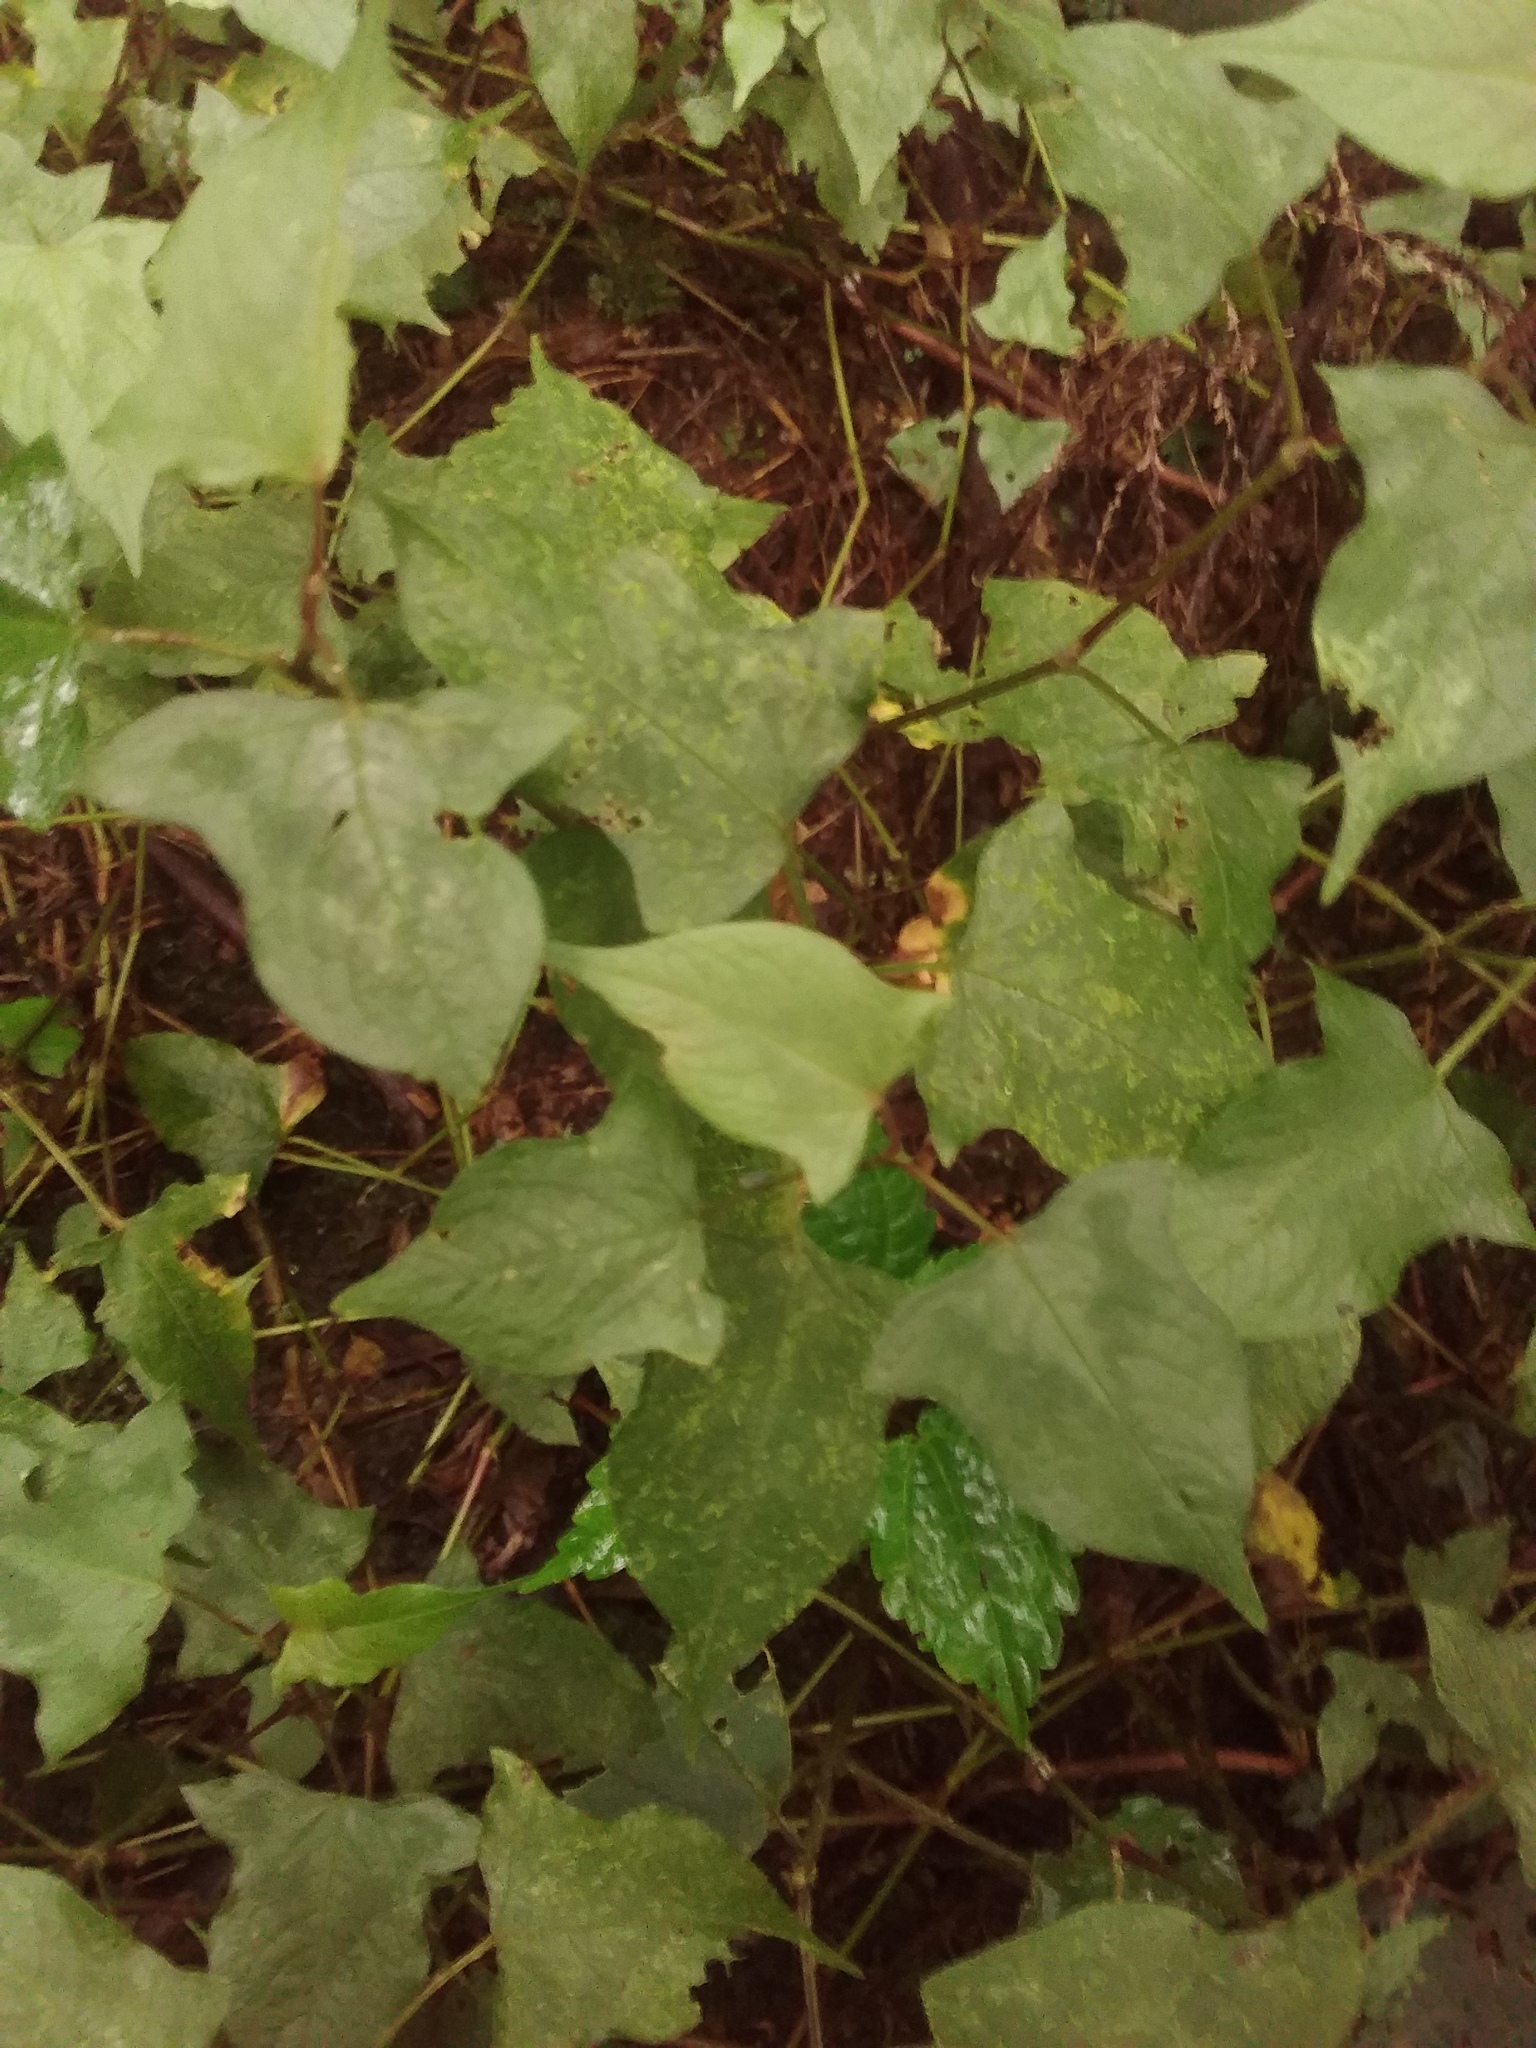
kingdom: Plantae
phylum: Tracheophyta
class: Magnoliopsida
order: Caryophyllales
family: Polygonaceae
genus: Persicaria
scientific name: Persicaria biconvexa
